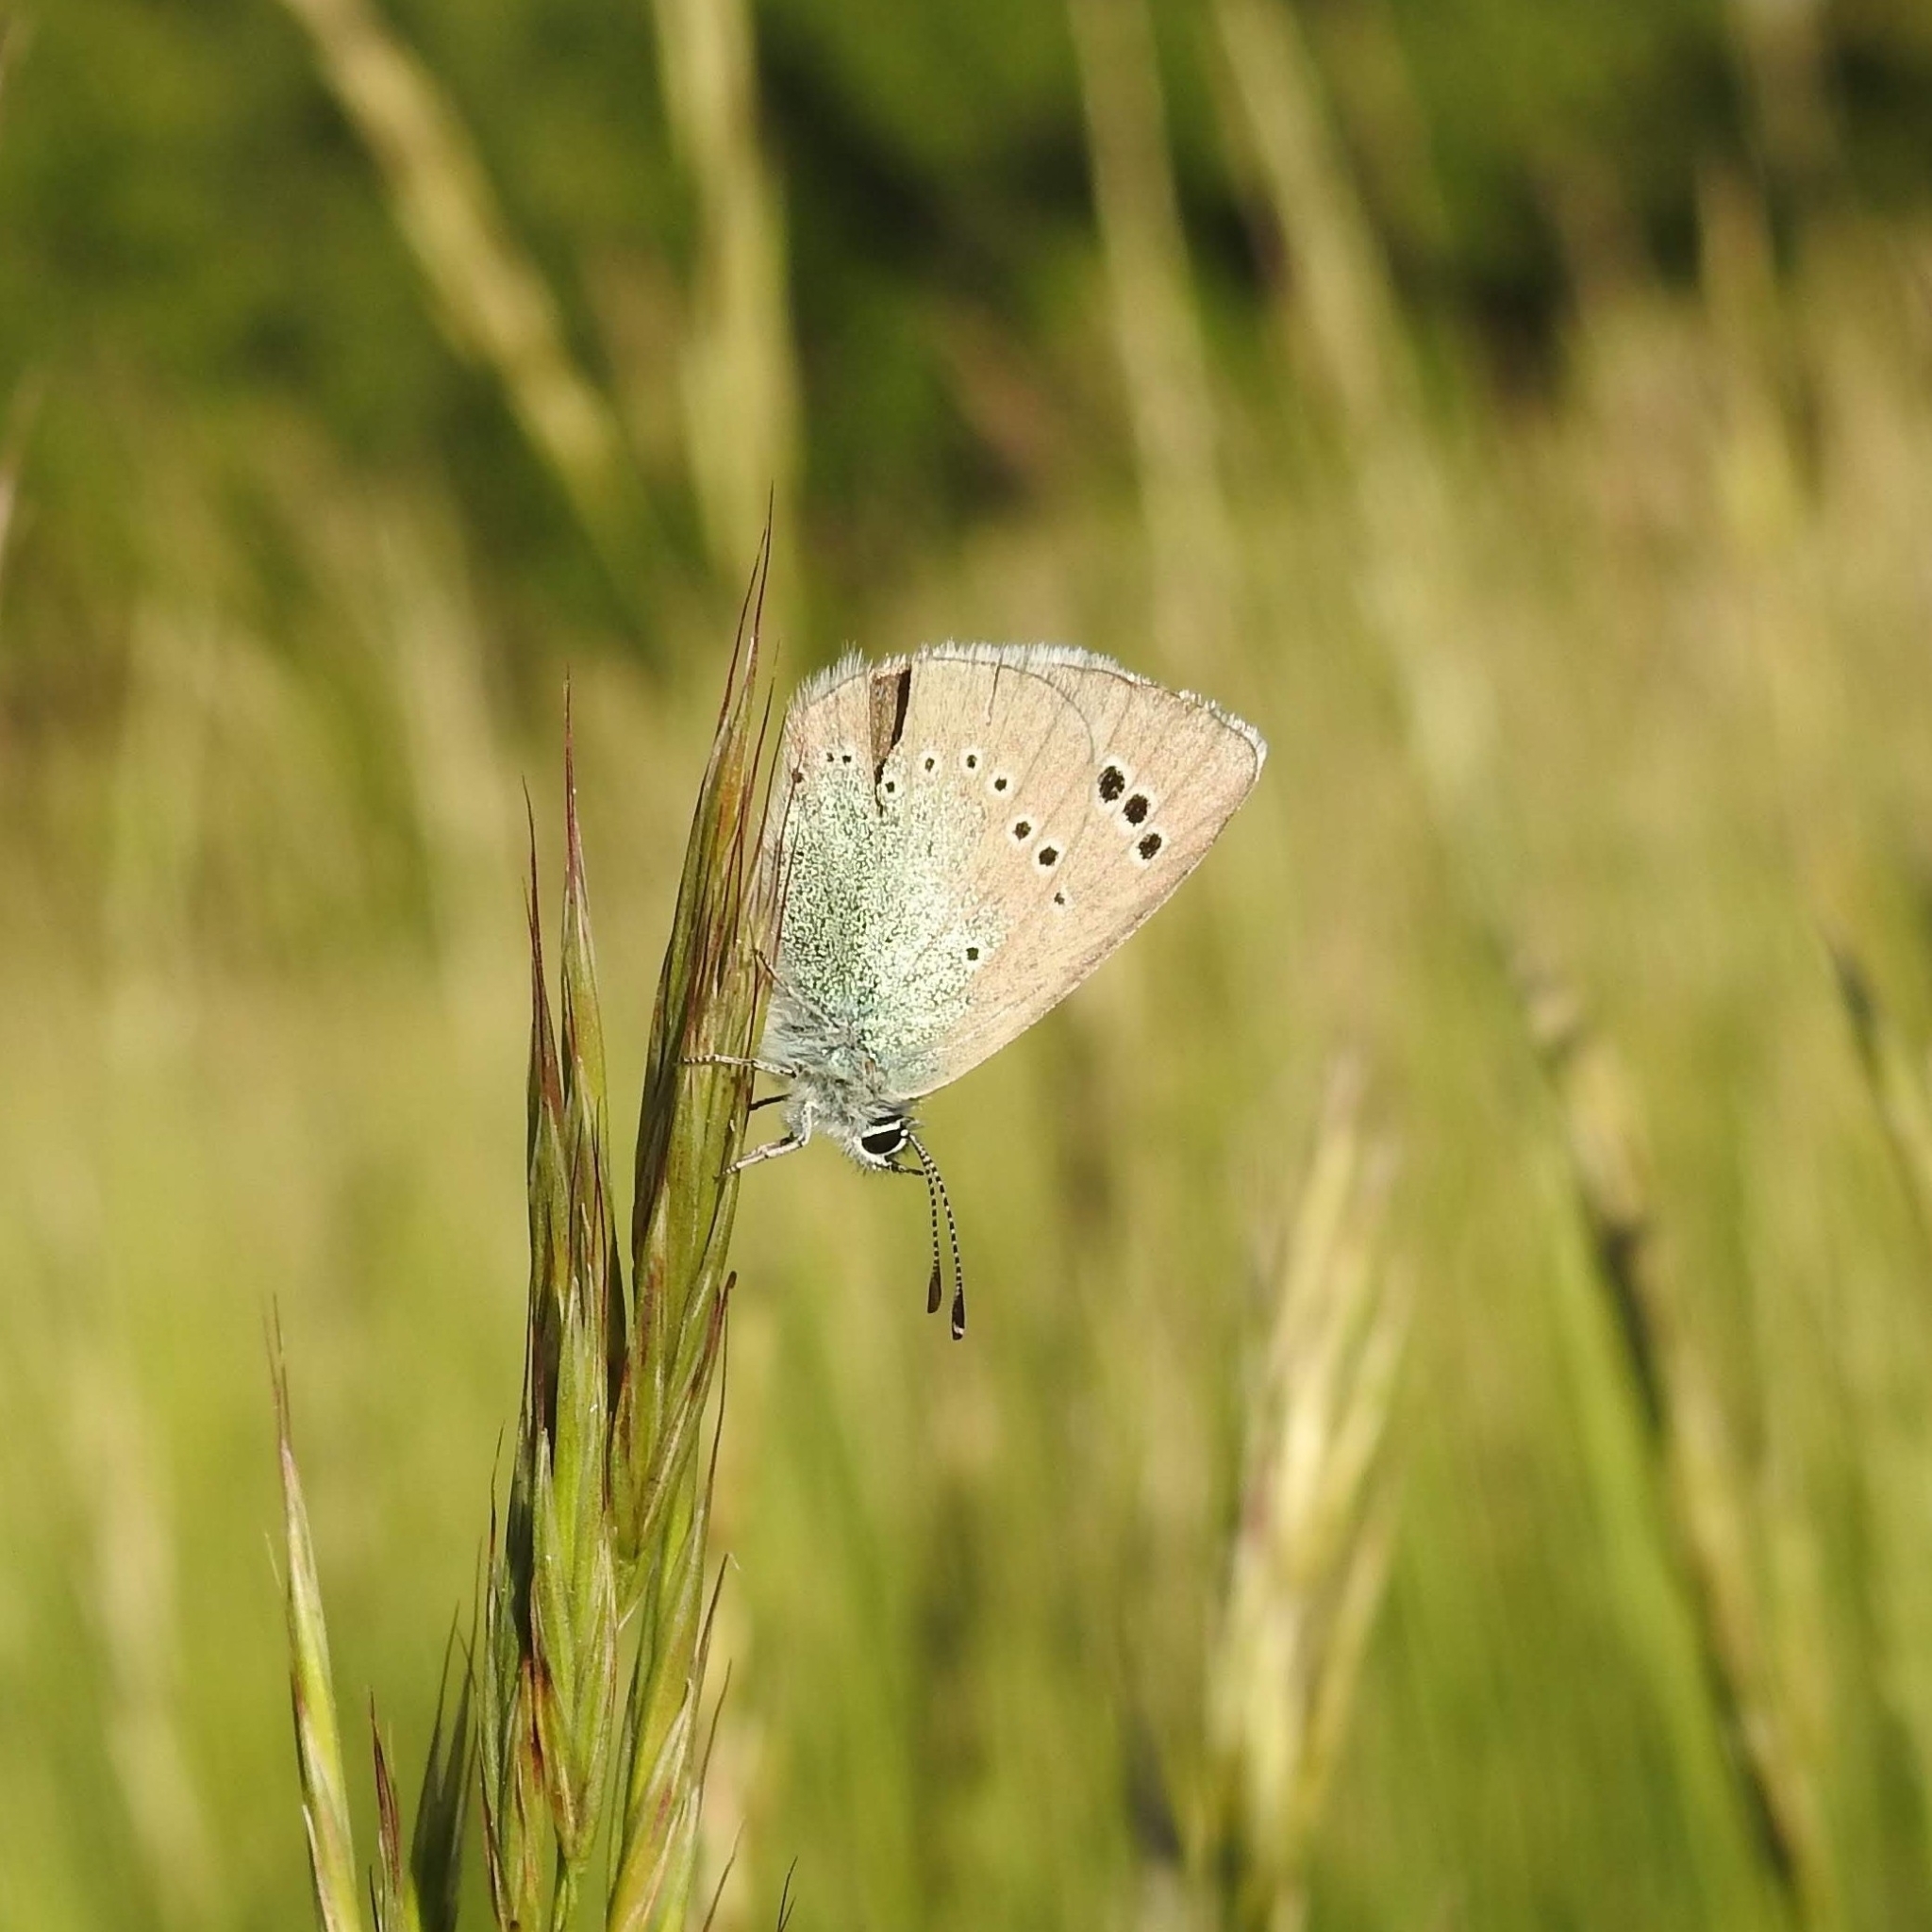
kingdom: Animalia
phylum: Arthropoda
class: Insecta
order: Lepidoptera
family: Lycaenidae
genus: Glaucopsyche
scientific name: Glaucopsyche alexis
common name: Green-underside blue
